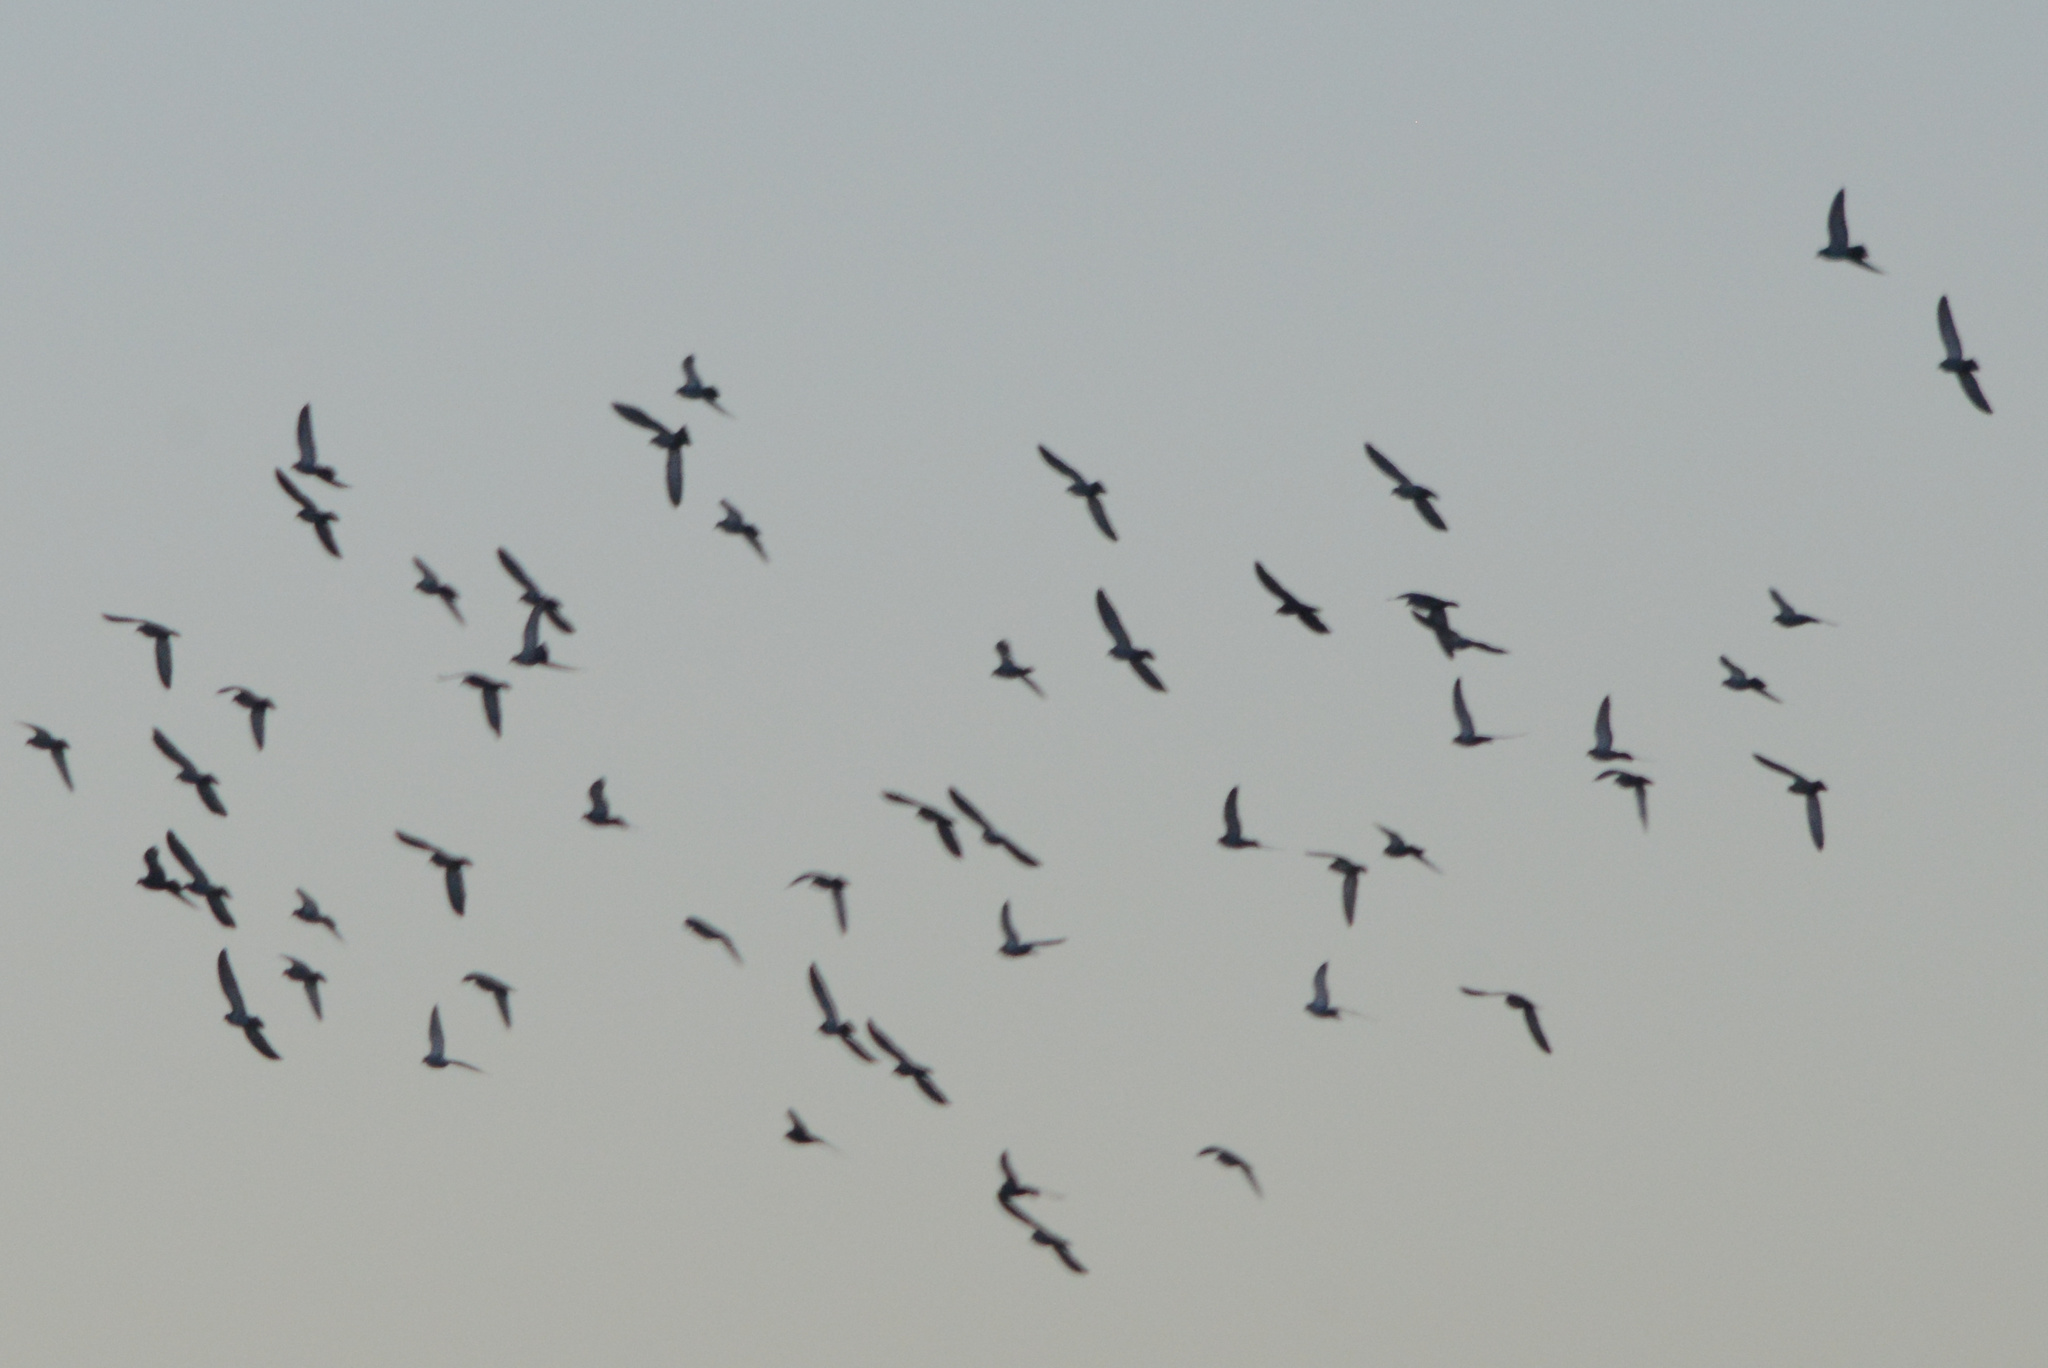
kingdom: Animalia
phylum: Chordata
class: Aves
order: Columbiformes
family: Columbidae
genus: Columba
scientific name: Columba livia
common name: Rock pigeon
